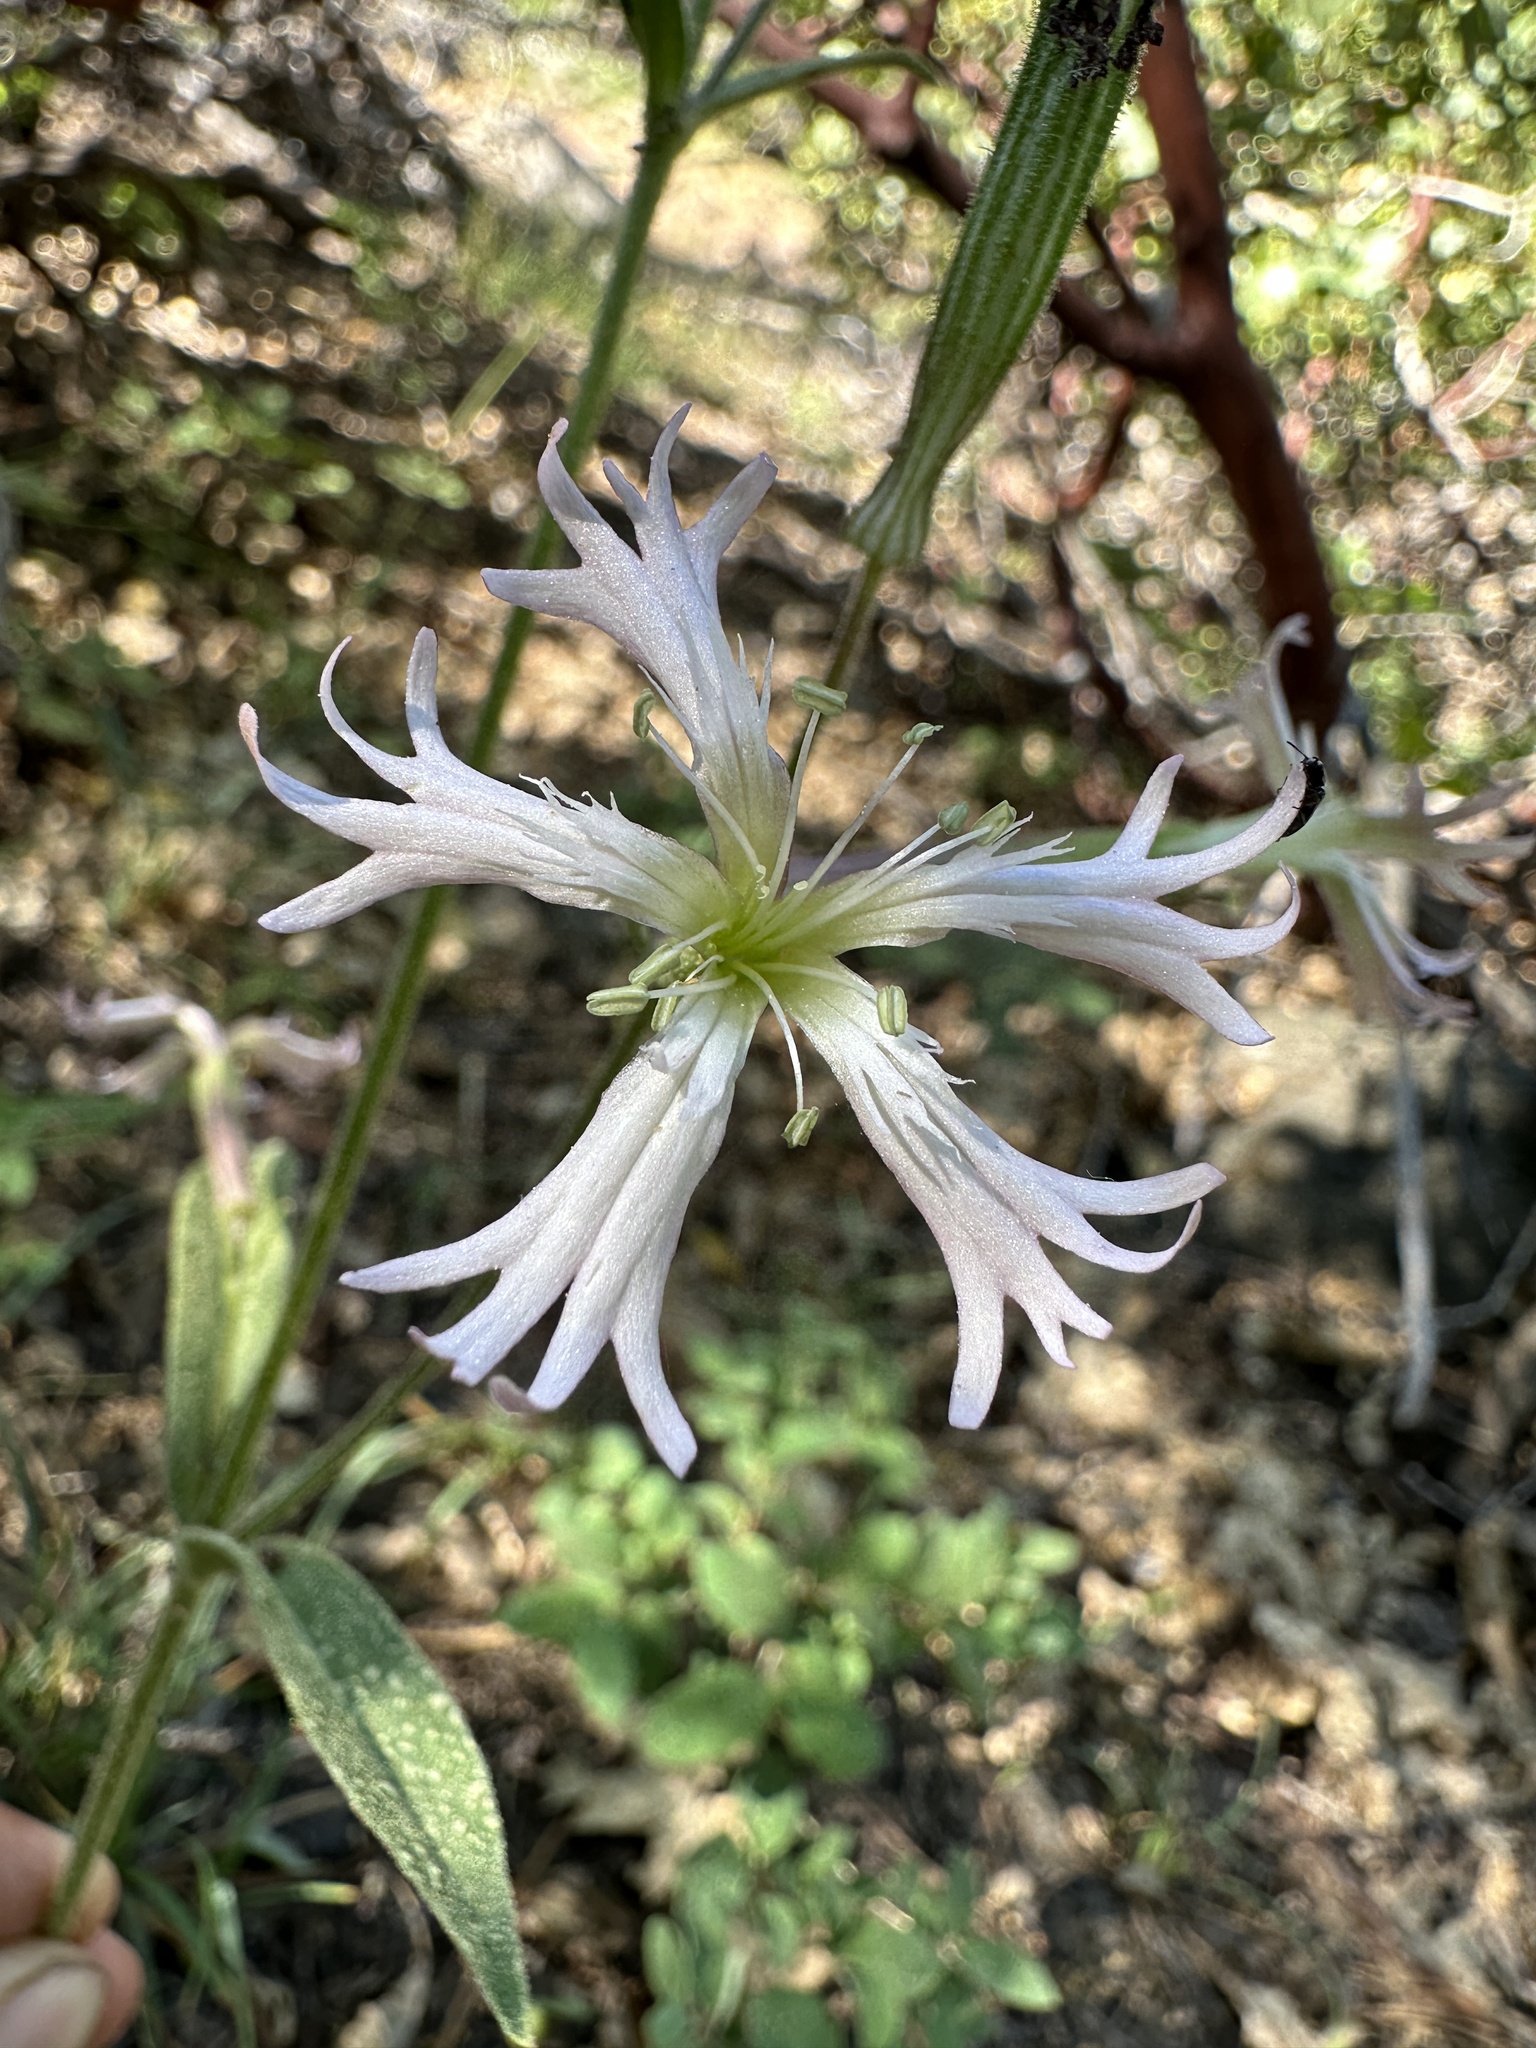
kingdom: Plantae
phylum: Tracheophyta
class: Magnoliopsida
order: Caryophyllales
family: Caryophyllaceae
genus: Silene
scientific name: Silene occidentalis
